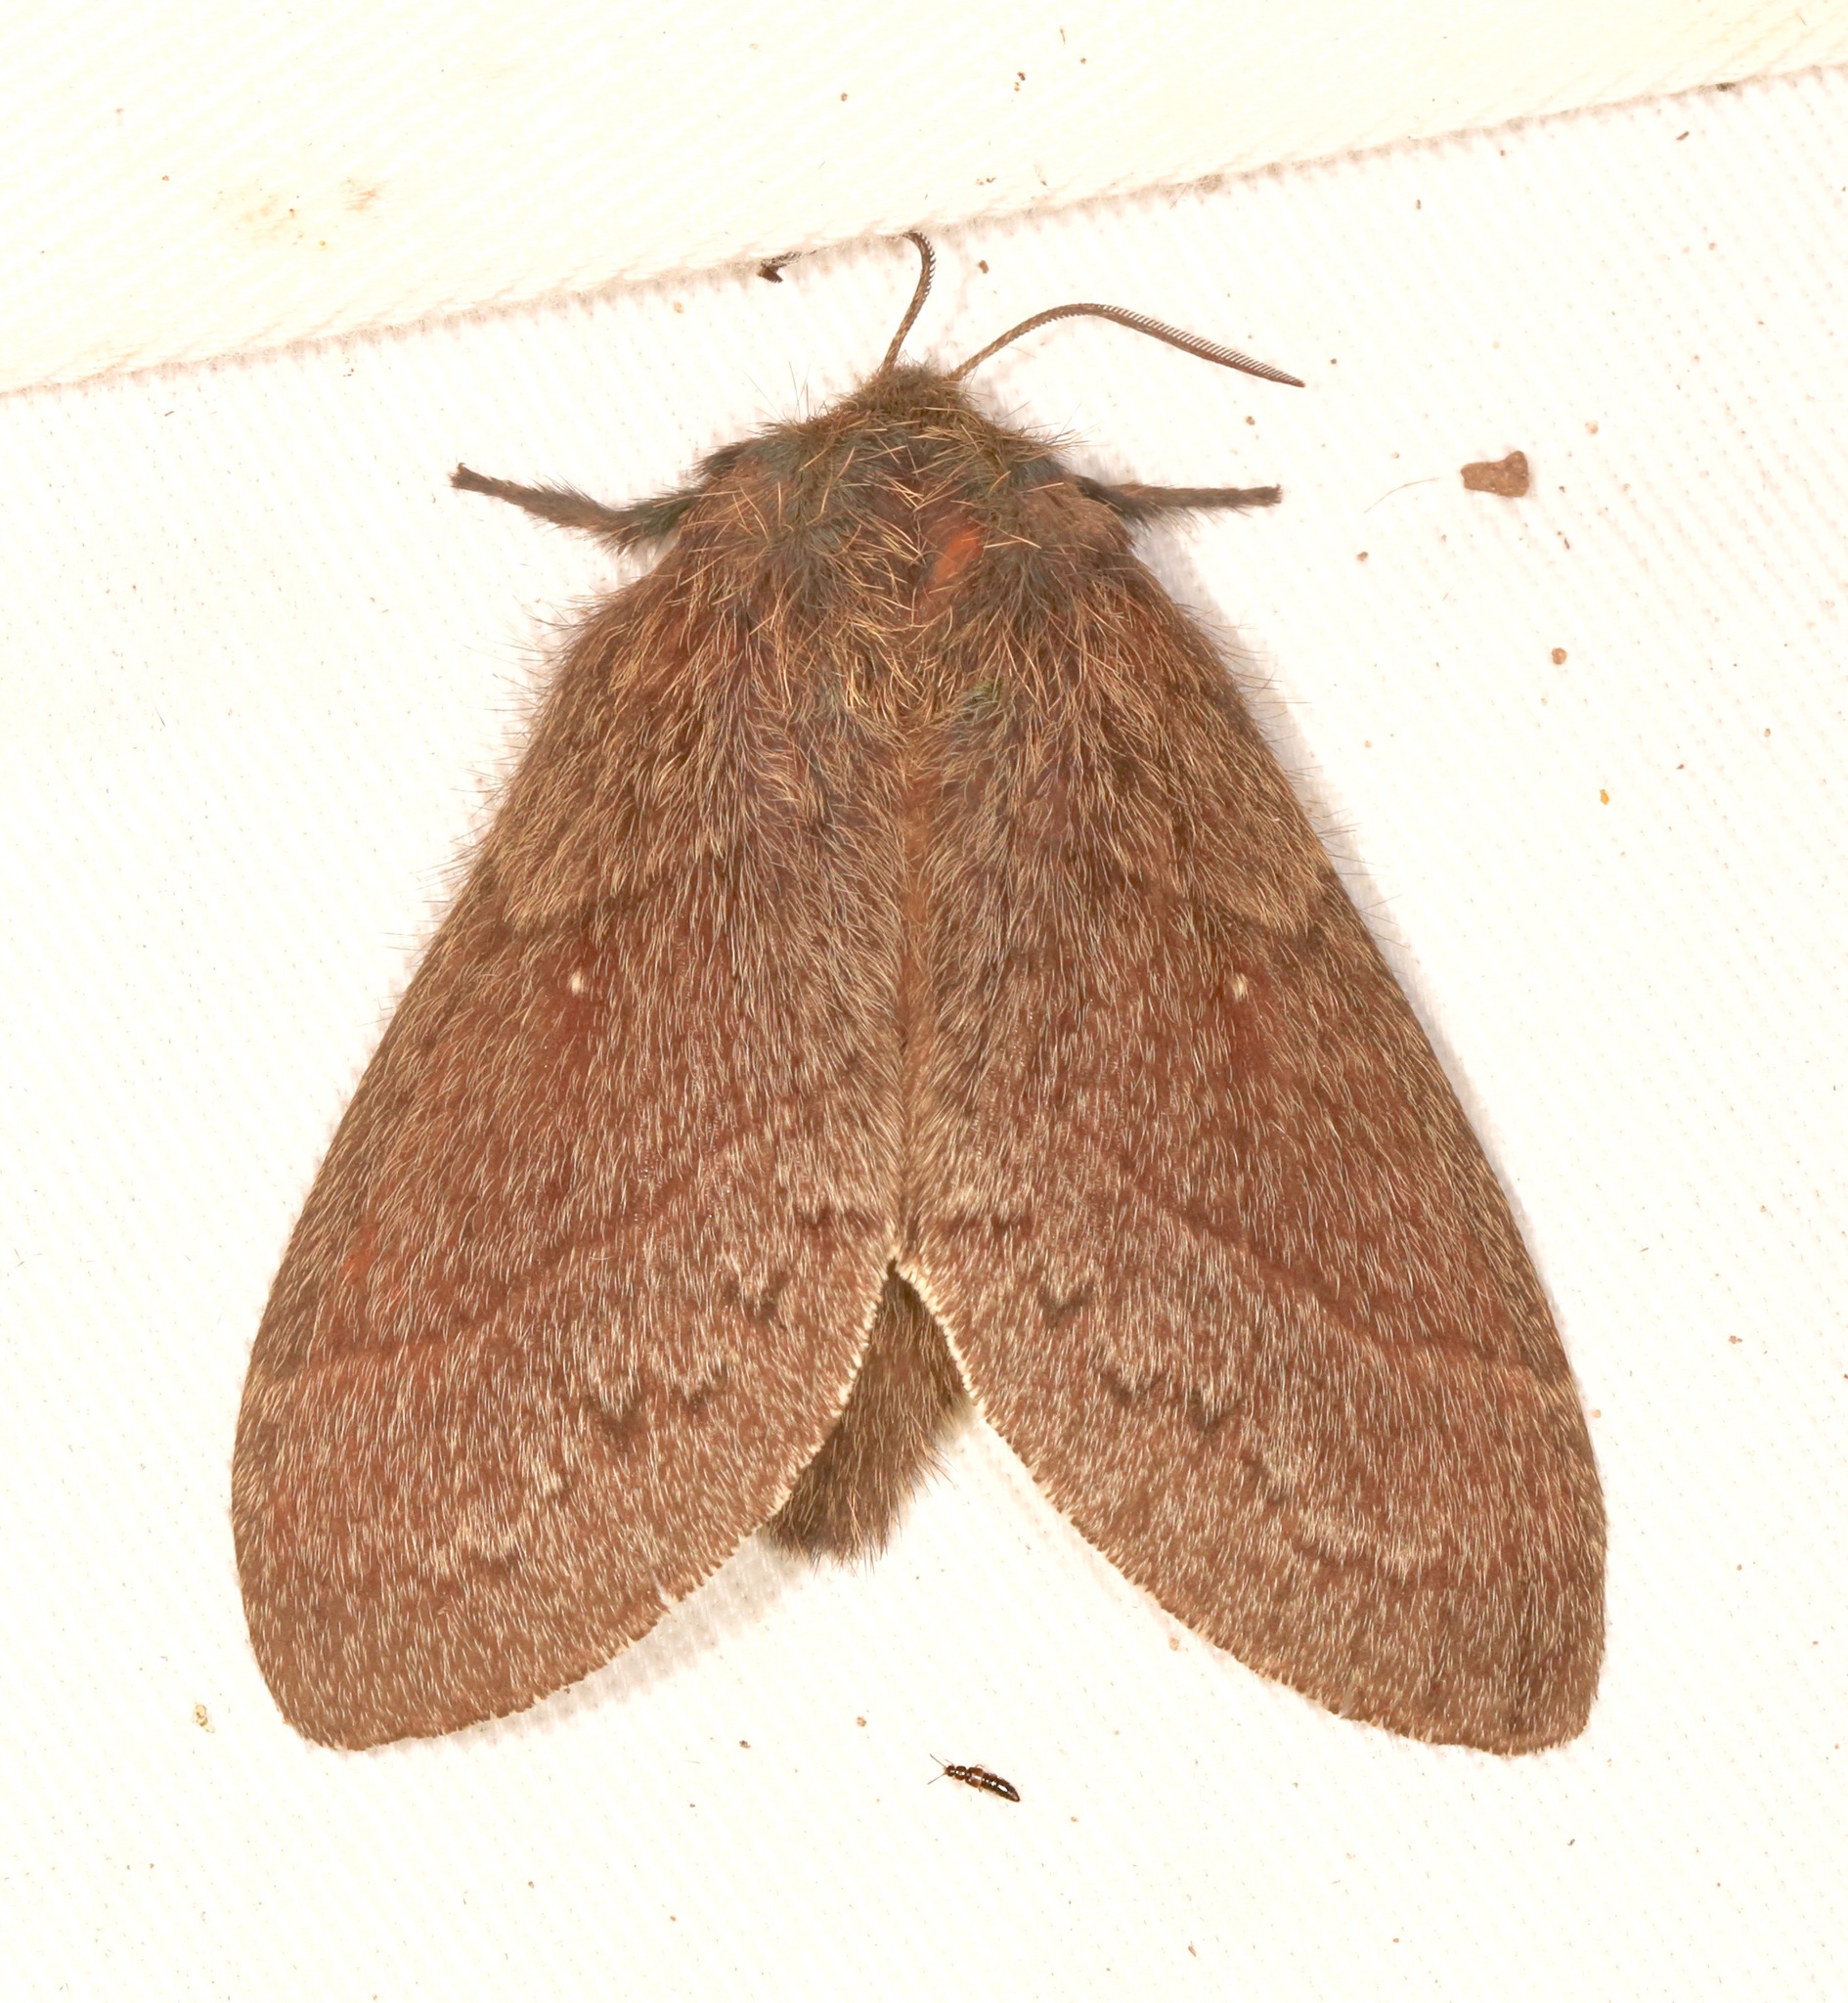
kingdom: Animalia
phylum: Arthropoda
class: Insecta
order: Lepidoptera
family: Lasiocampidae
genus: Gloveria
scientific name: Gloveria gargamelle
